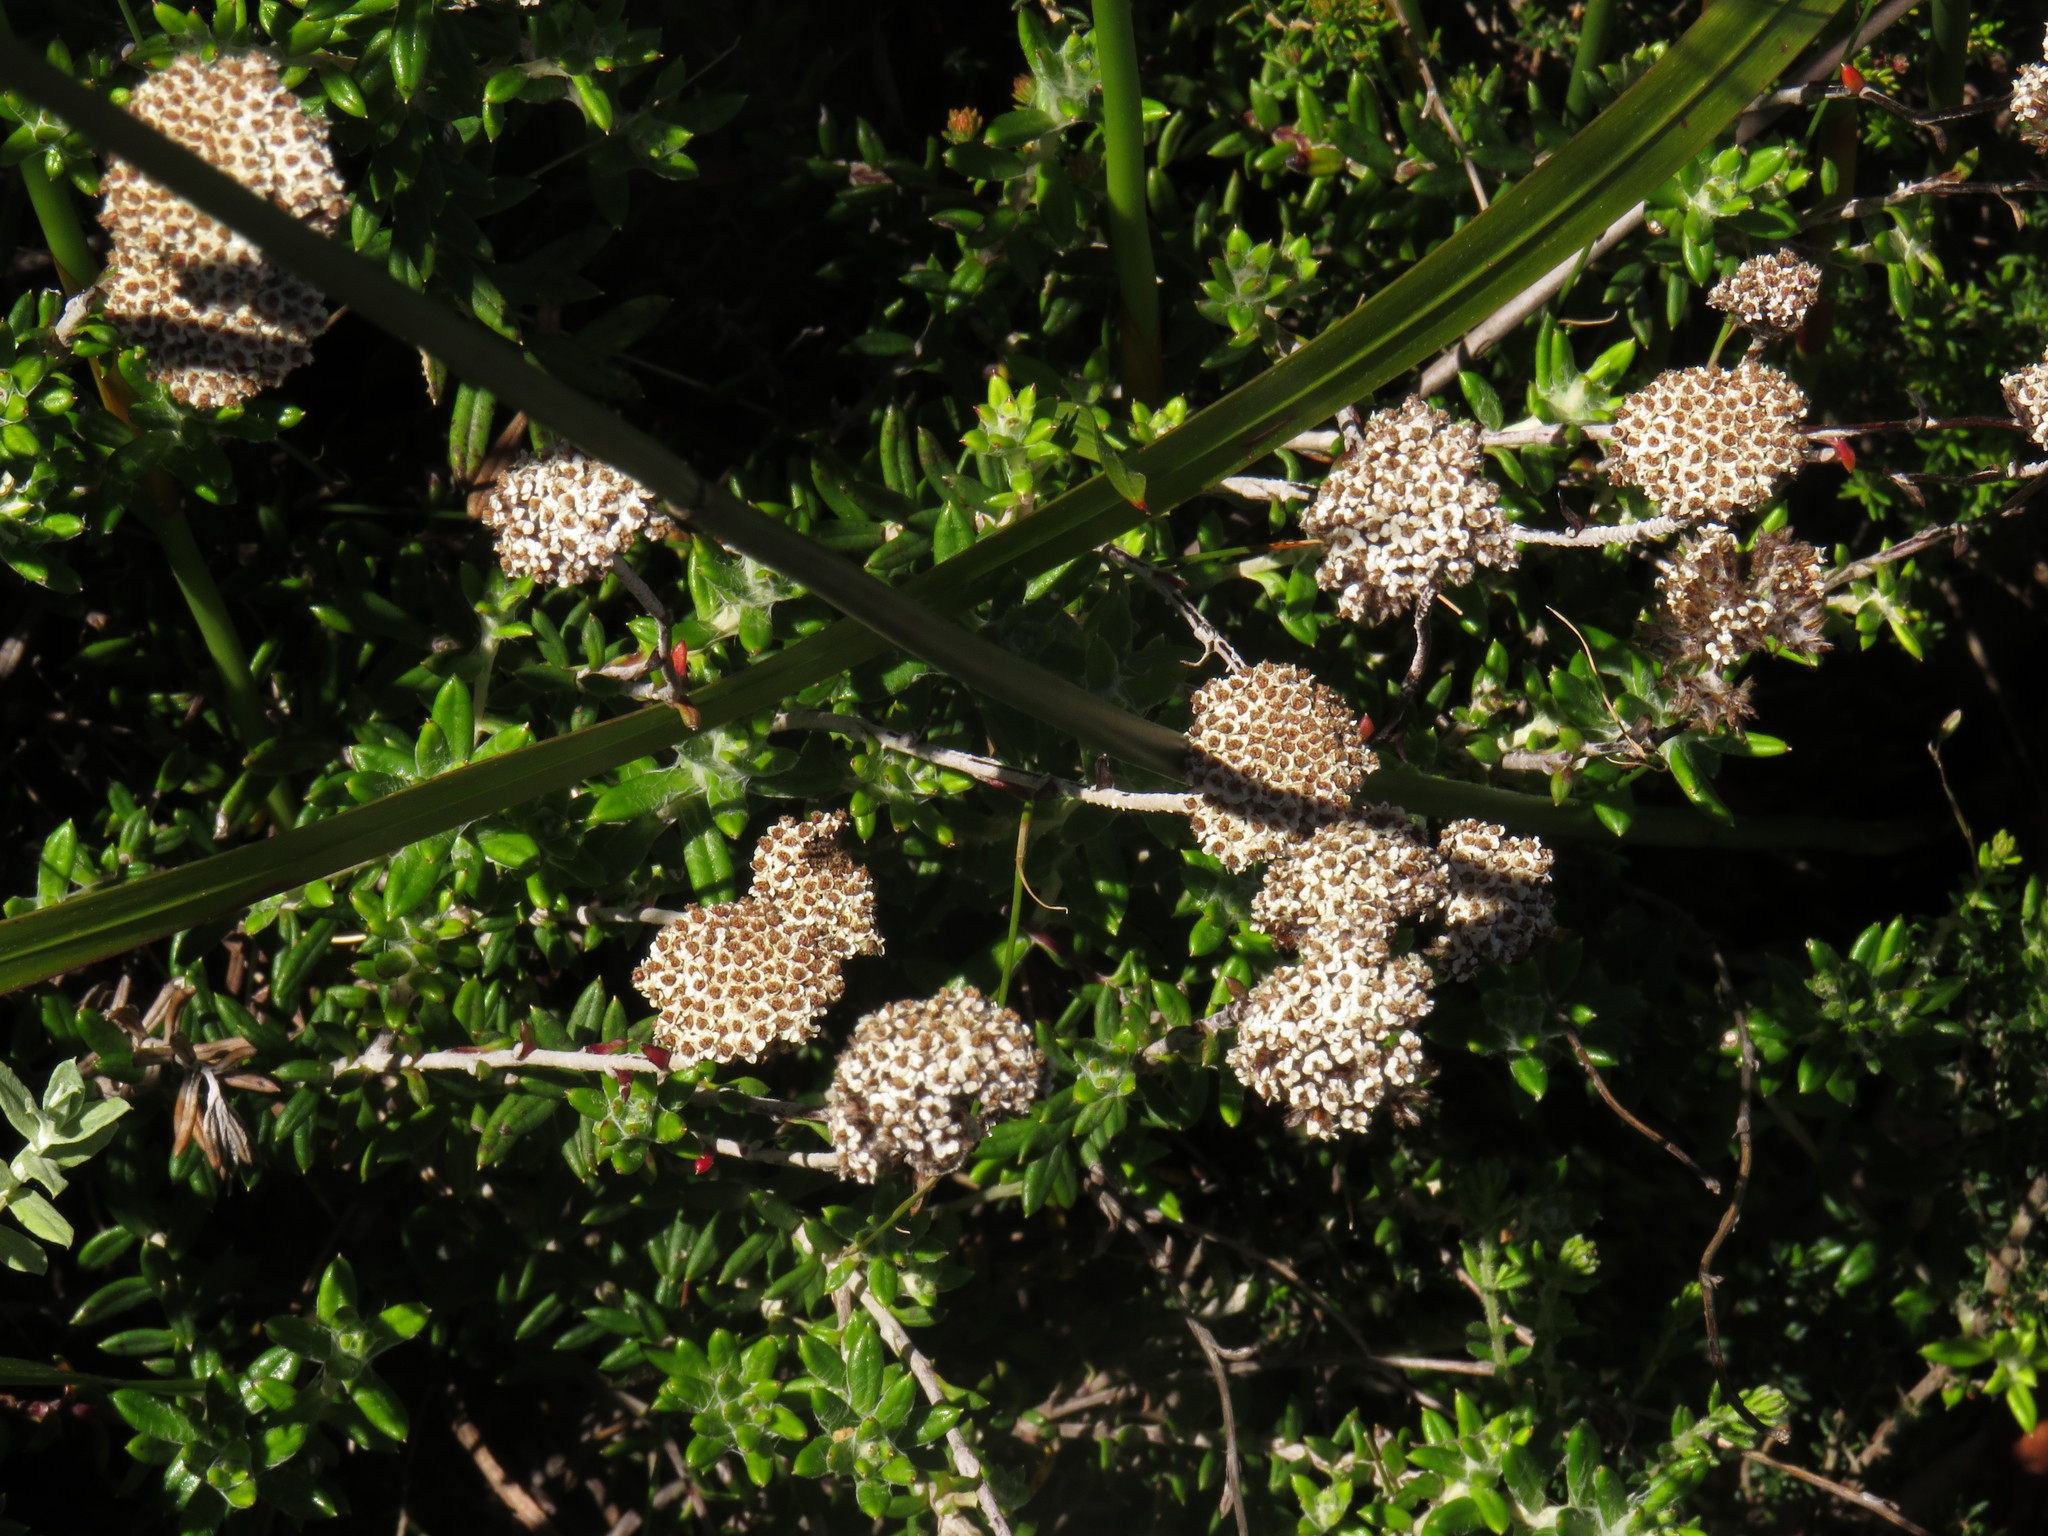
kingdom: Plantae
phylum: Tracheophyta
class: Magnoliopsida
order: Asterales
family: Asteraceae
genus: Anaxeton
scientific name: Anaxeton arborescens
